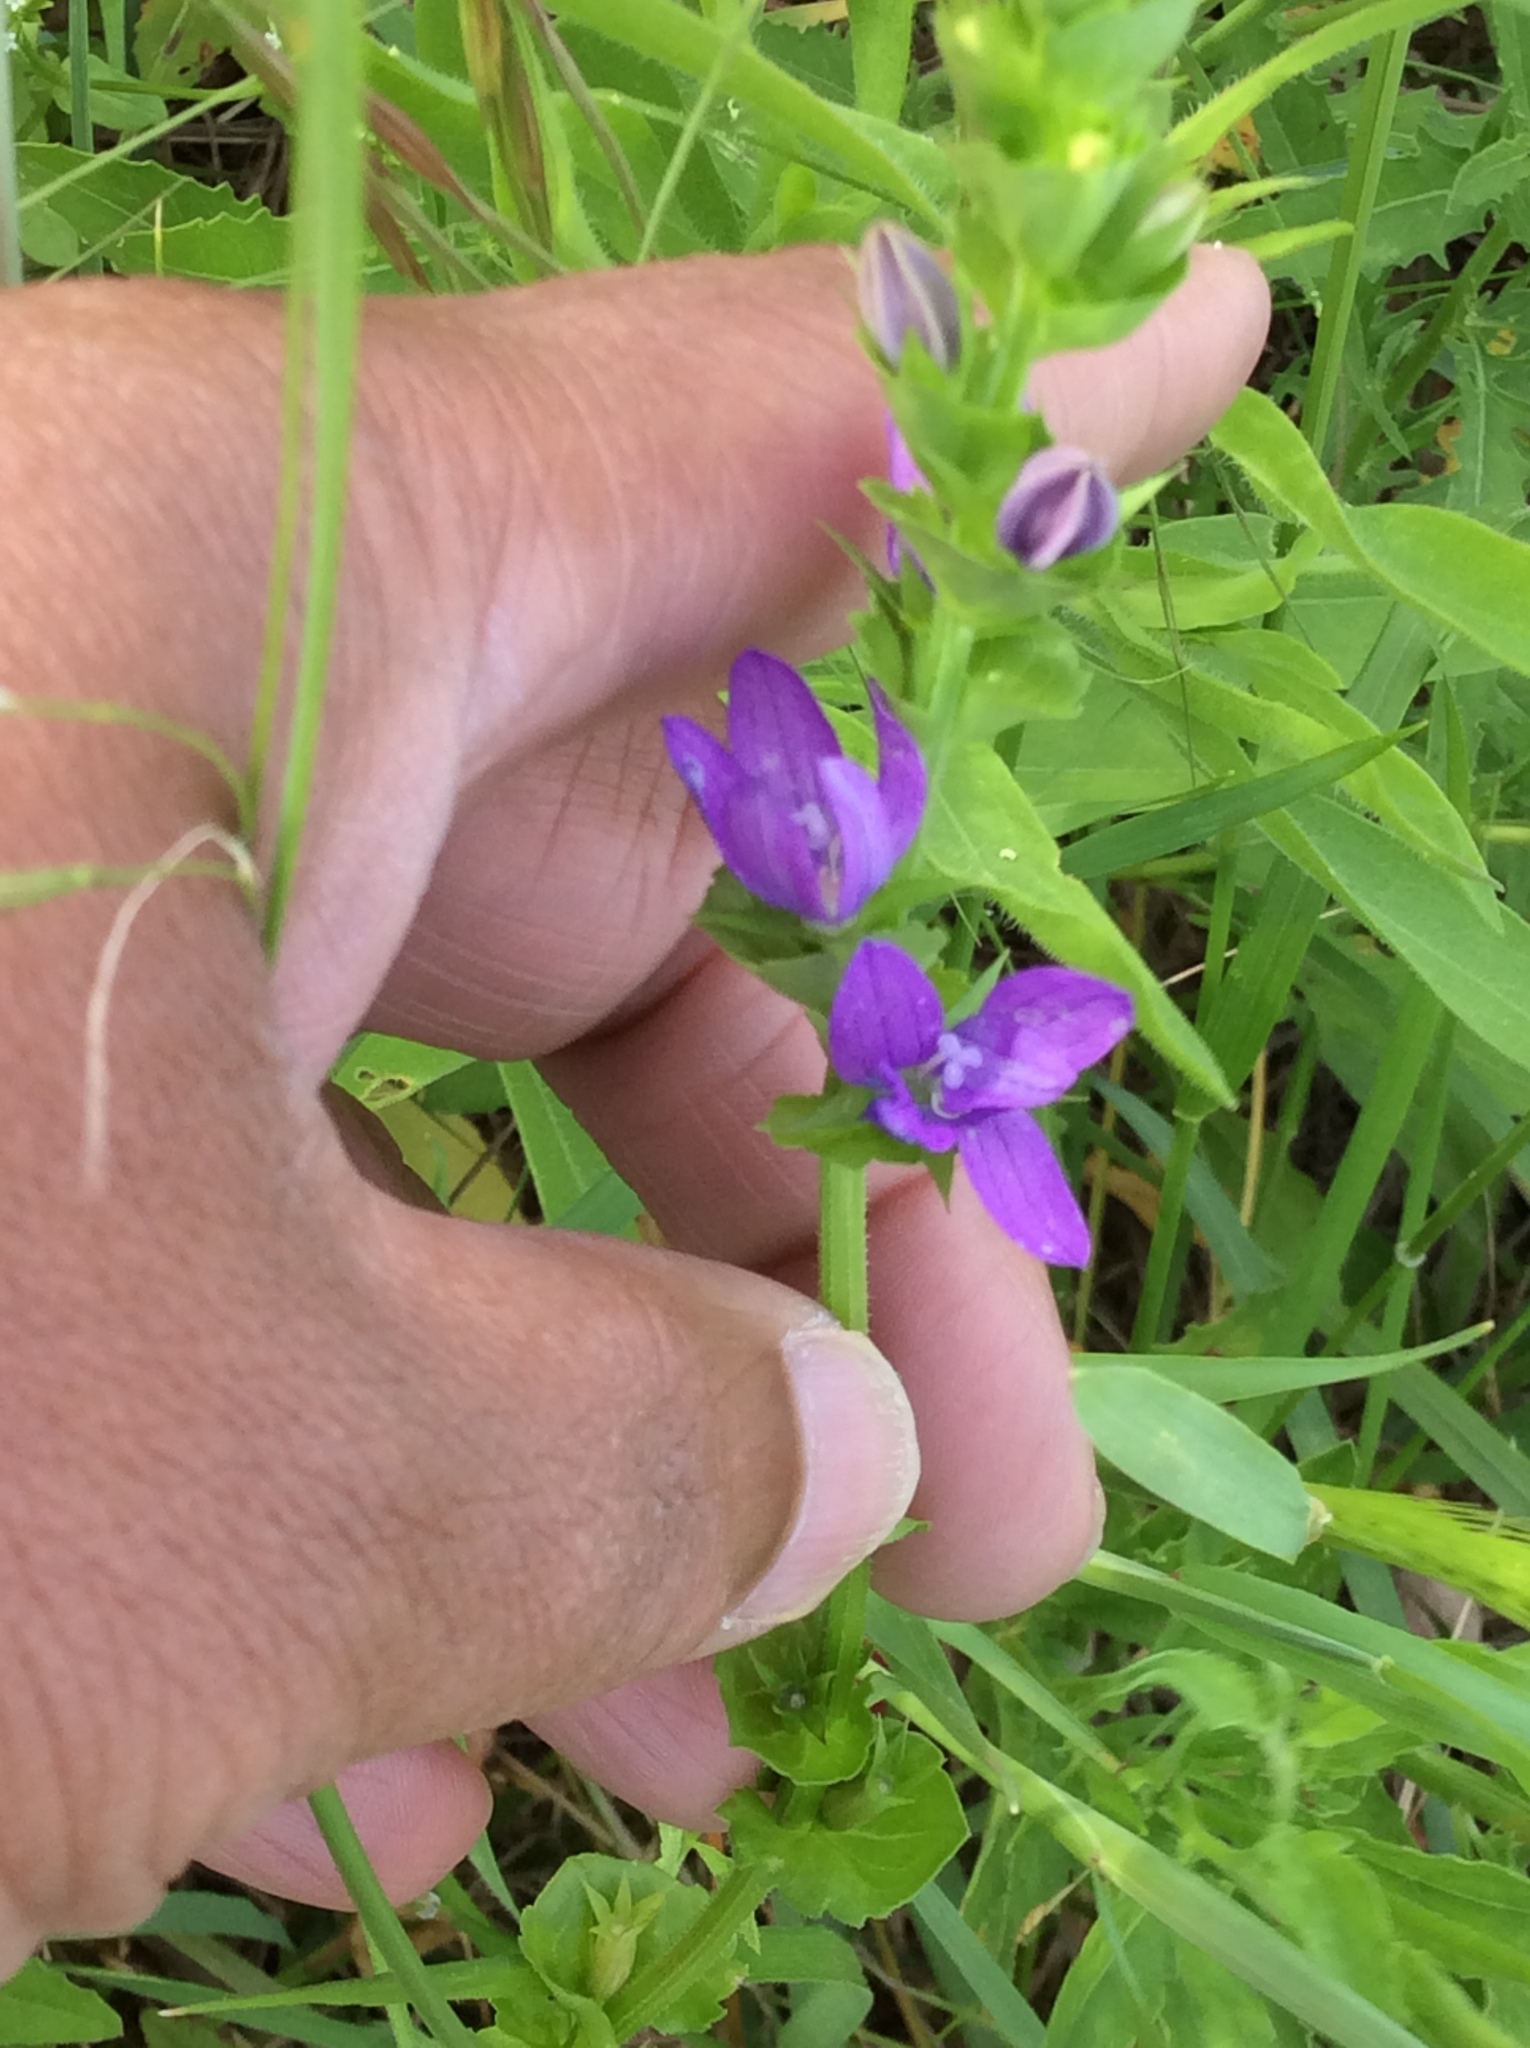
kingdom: Plantae
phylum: Tracheophyta
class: Magnoliopsida
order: Asterales
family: Campanulaceae
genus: Triodanis
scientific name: Triodanis perfoliata
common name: Clasping venus' looking-glass
